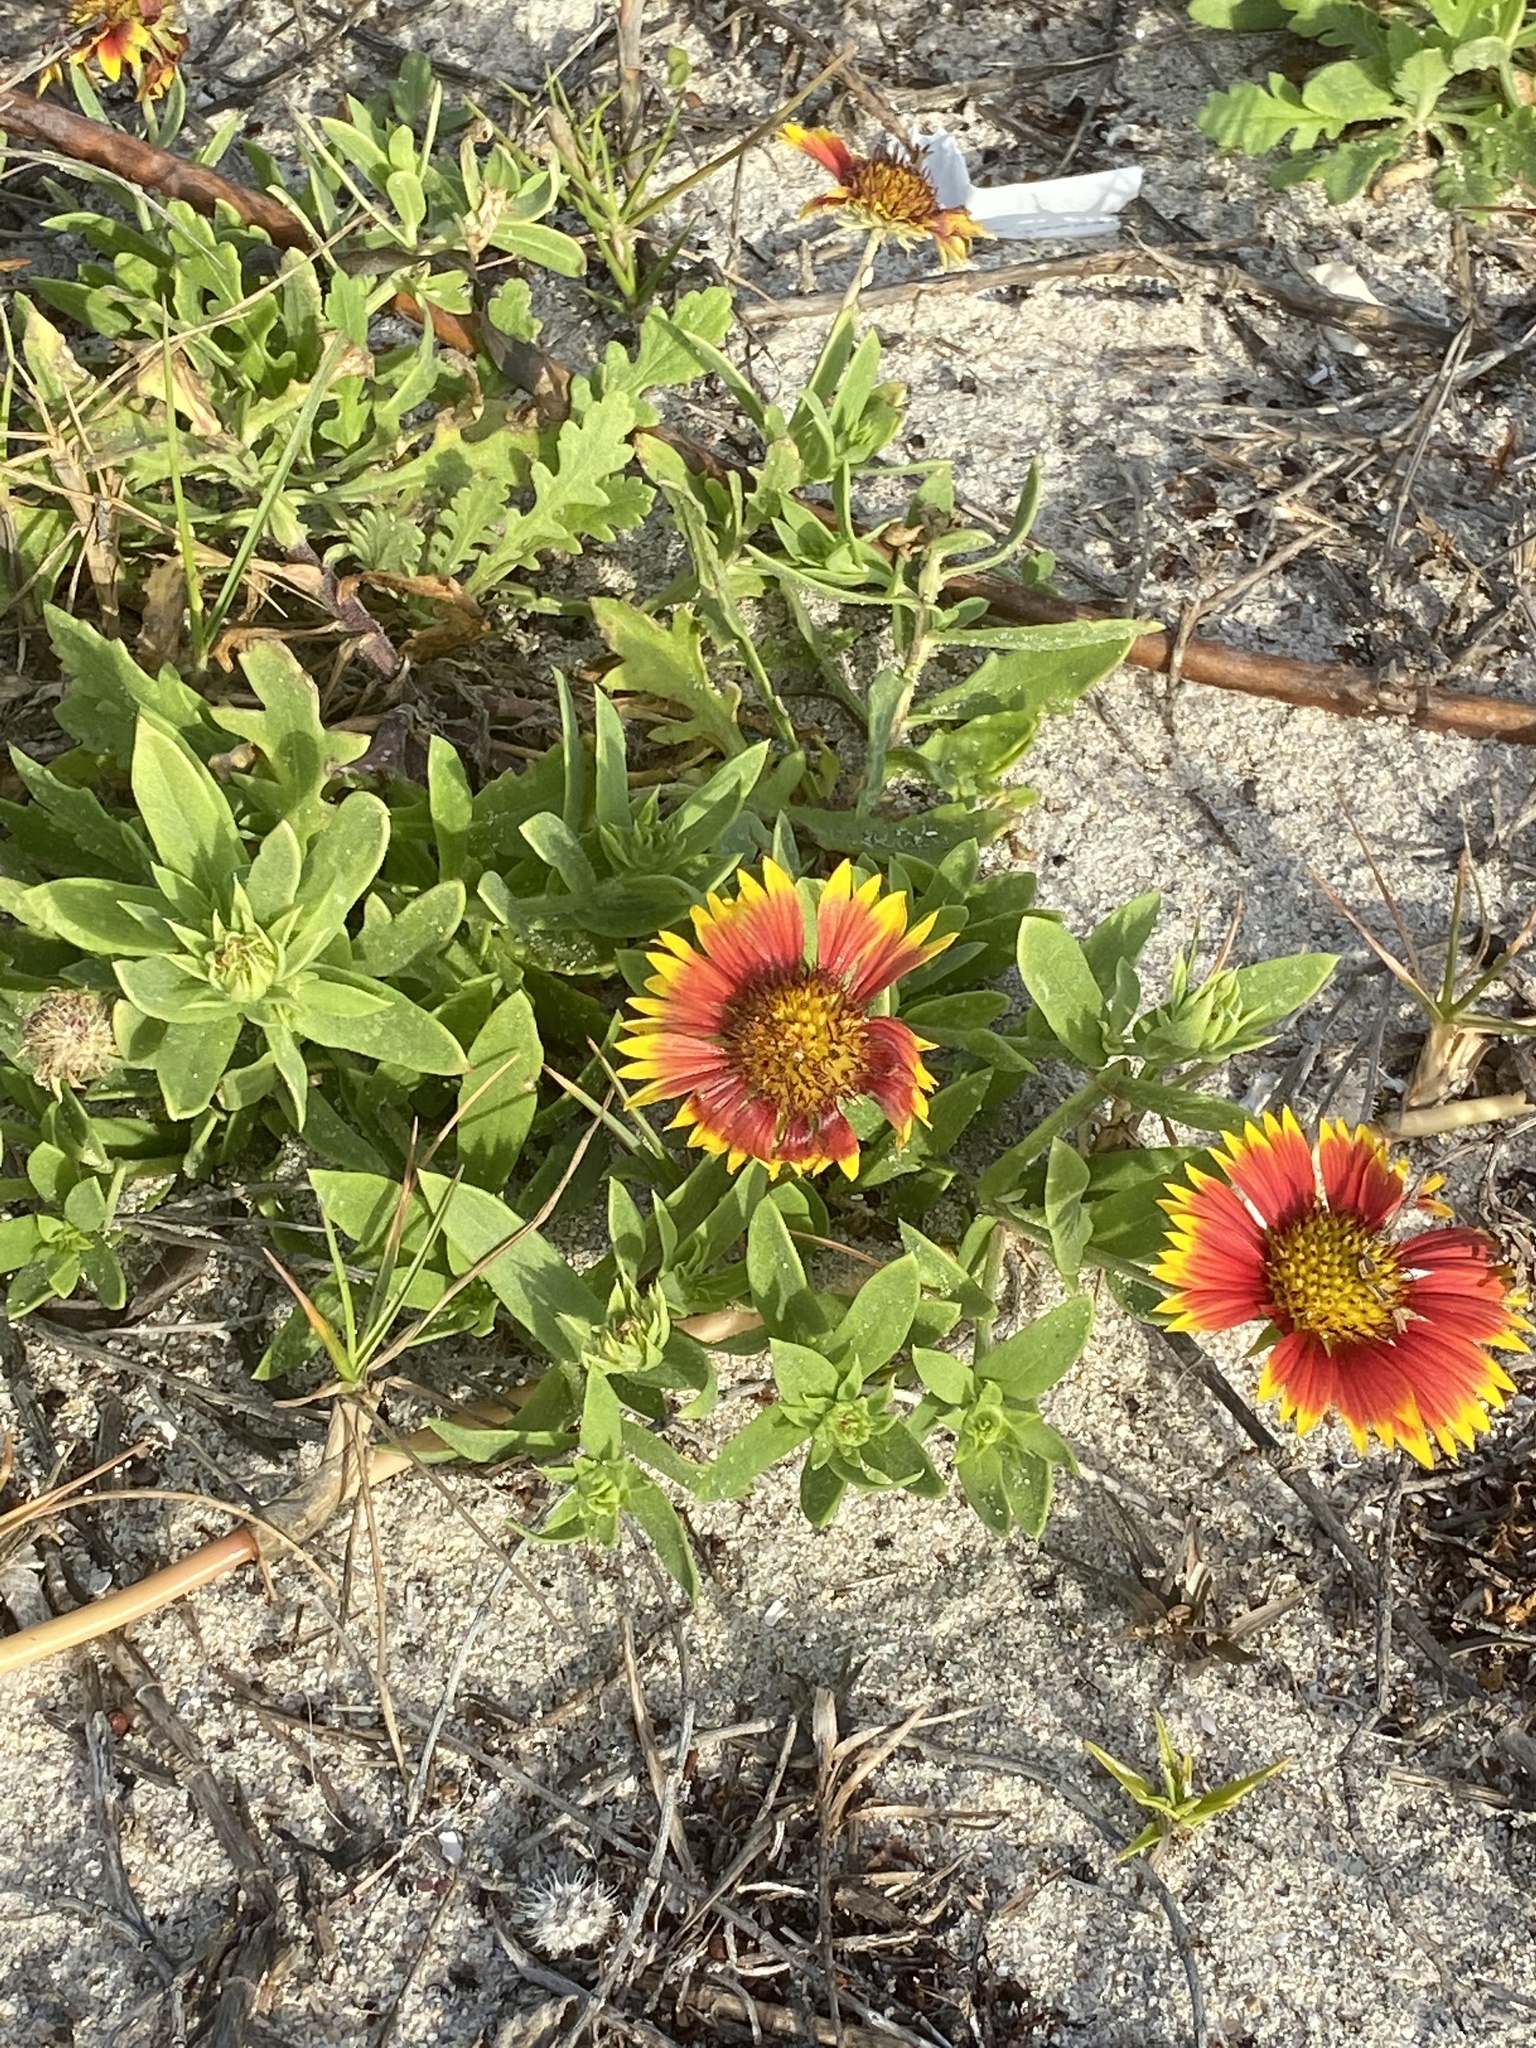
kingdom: Plantae
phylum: Tracheophyta
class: Magnoliopsida
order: Asterales
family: Asteraceae
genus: Gaillardia
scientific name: Gaillardia pulchella
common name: Firewheel
